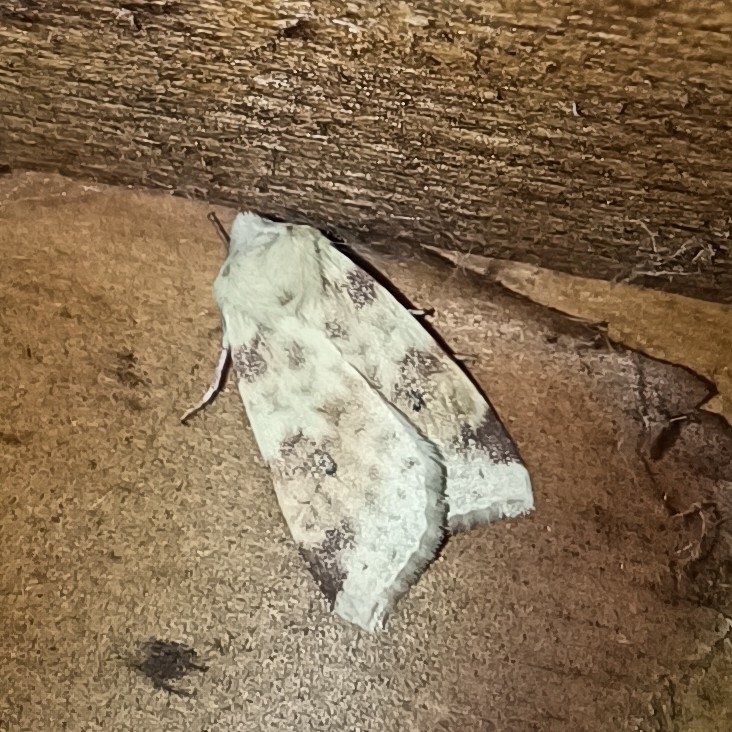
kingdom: Animalia
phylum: Arthropoda
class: Insecta
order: Lepidoptera
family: Noctuidae
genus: Xanthia
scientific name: Xanthia icteritia
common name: The sallow
